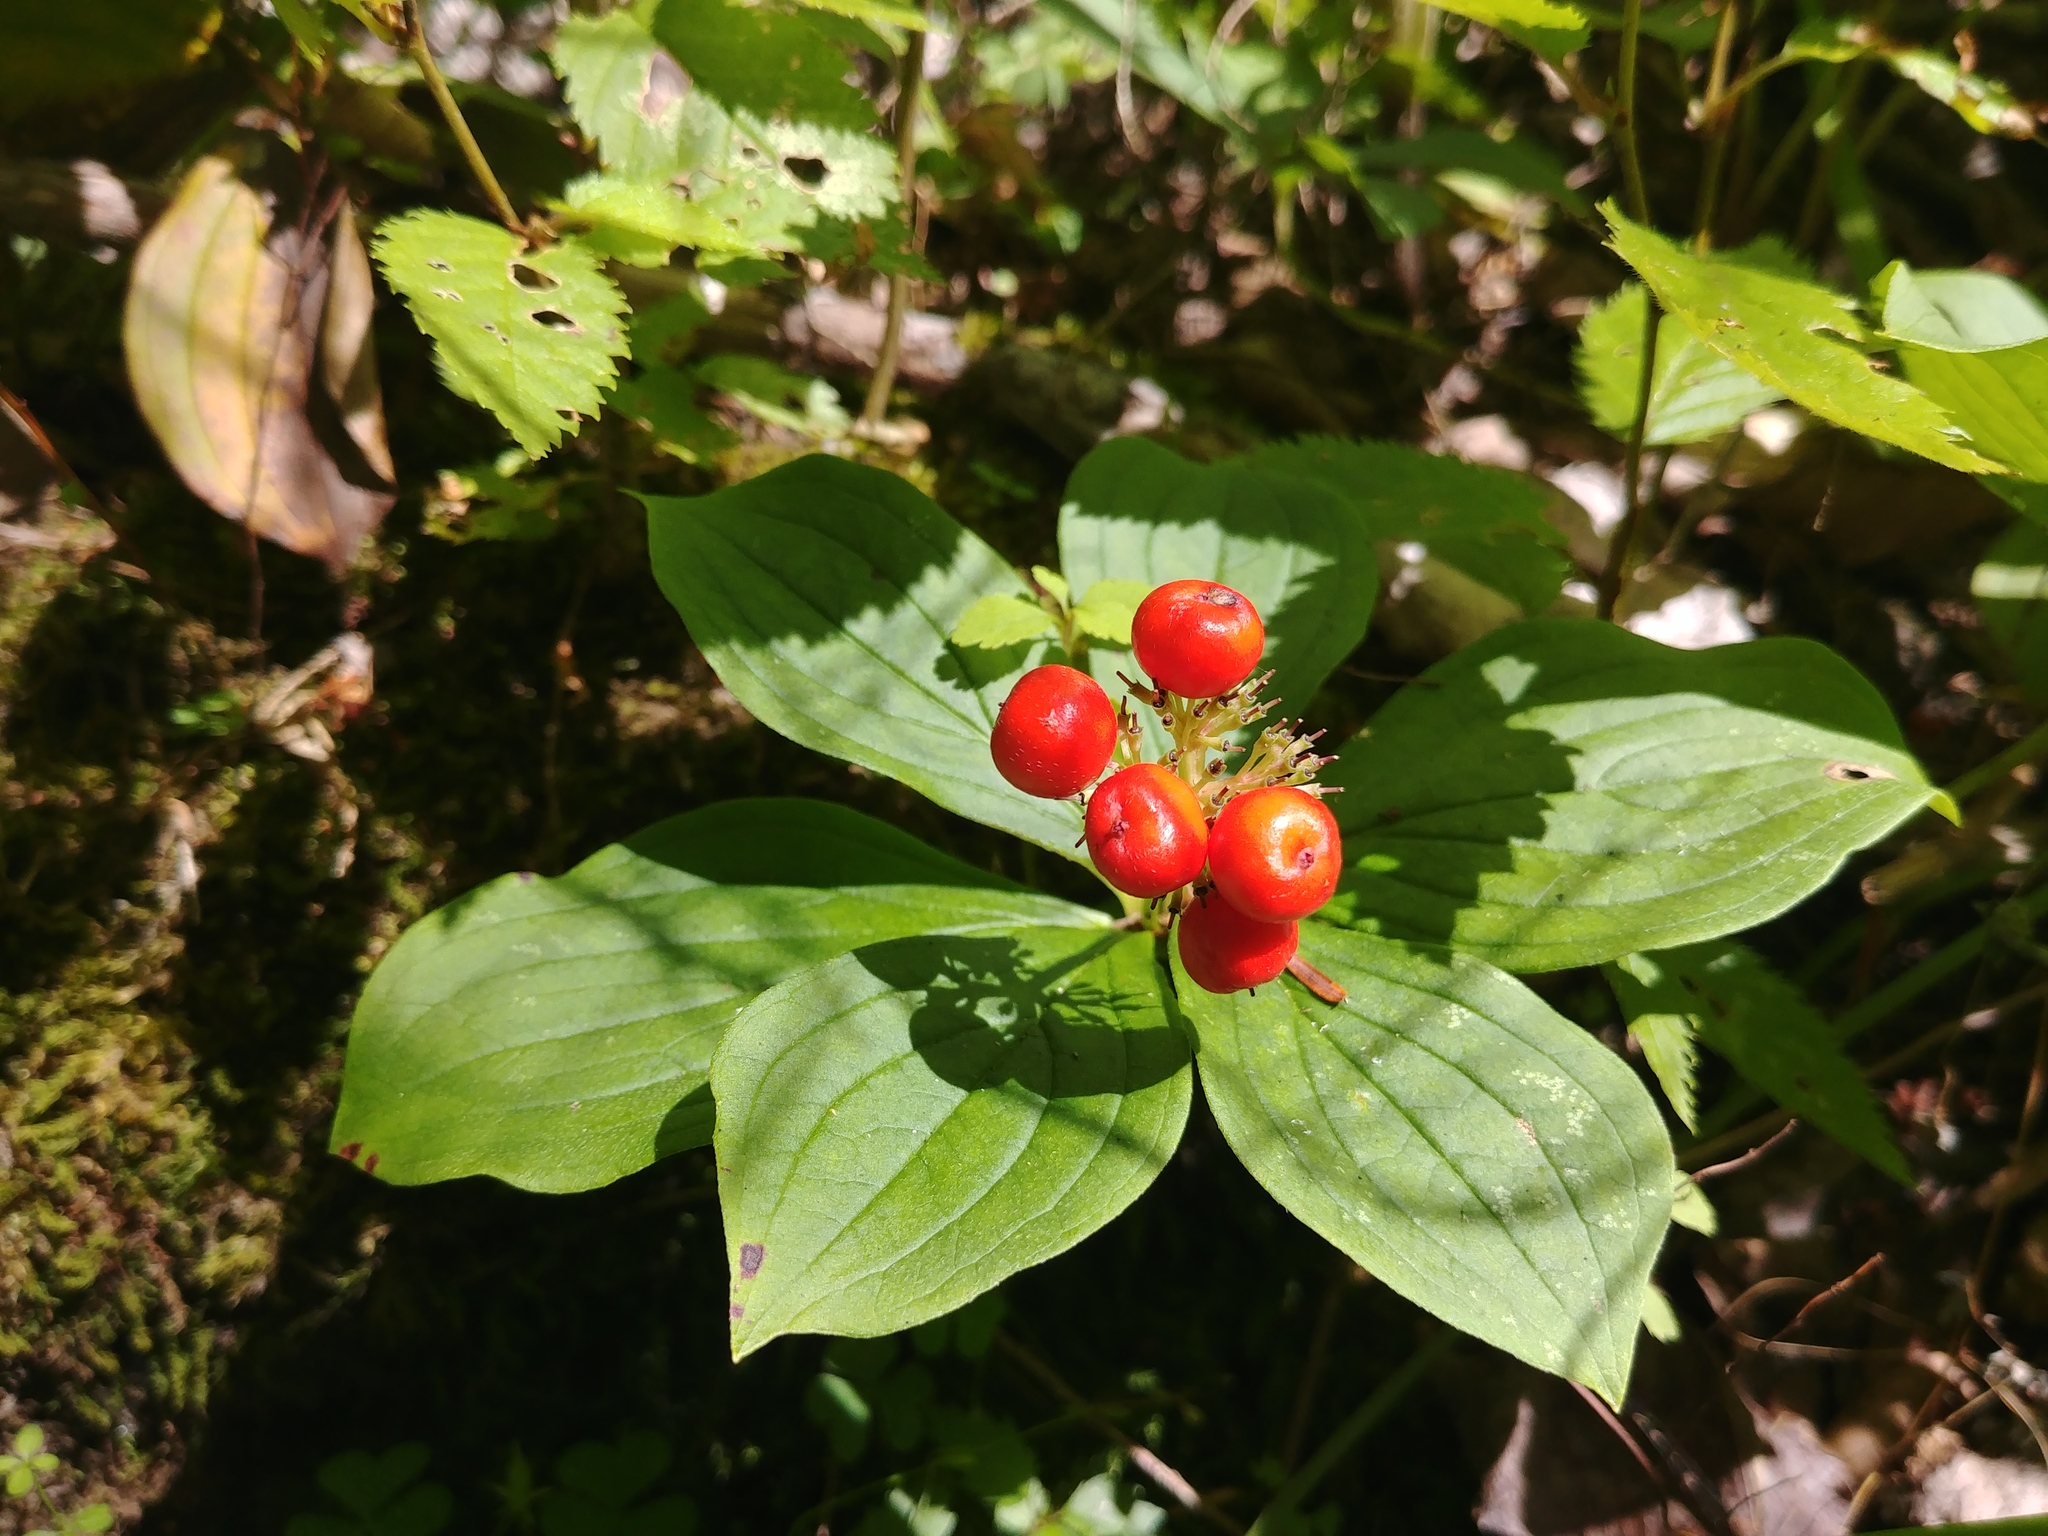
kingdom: Plantae
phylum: Tracheophyta
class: Magnoliopsida
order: Cornales
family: Cornaceae
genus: Cornus
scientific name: Cornus canadensis
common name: Creeping dogwood
